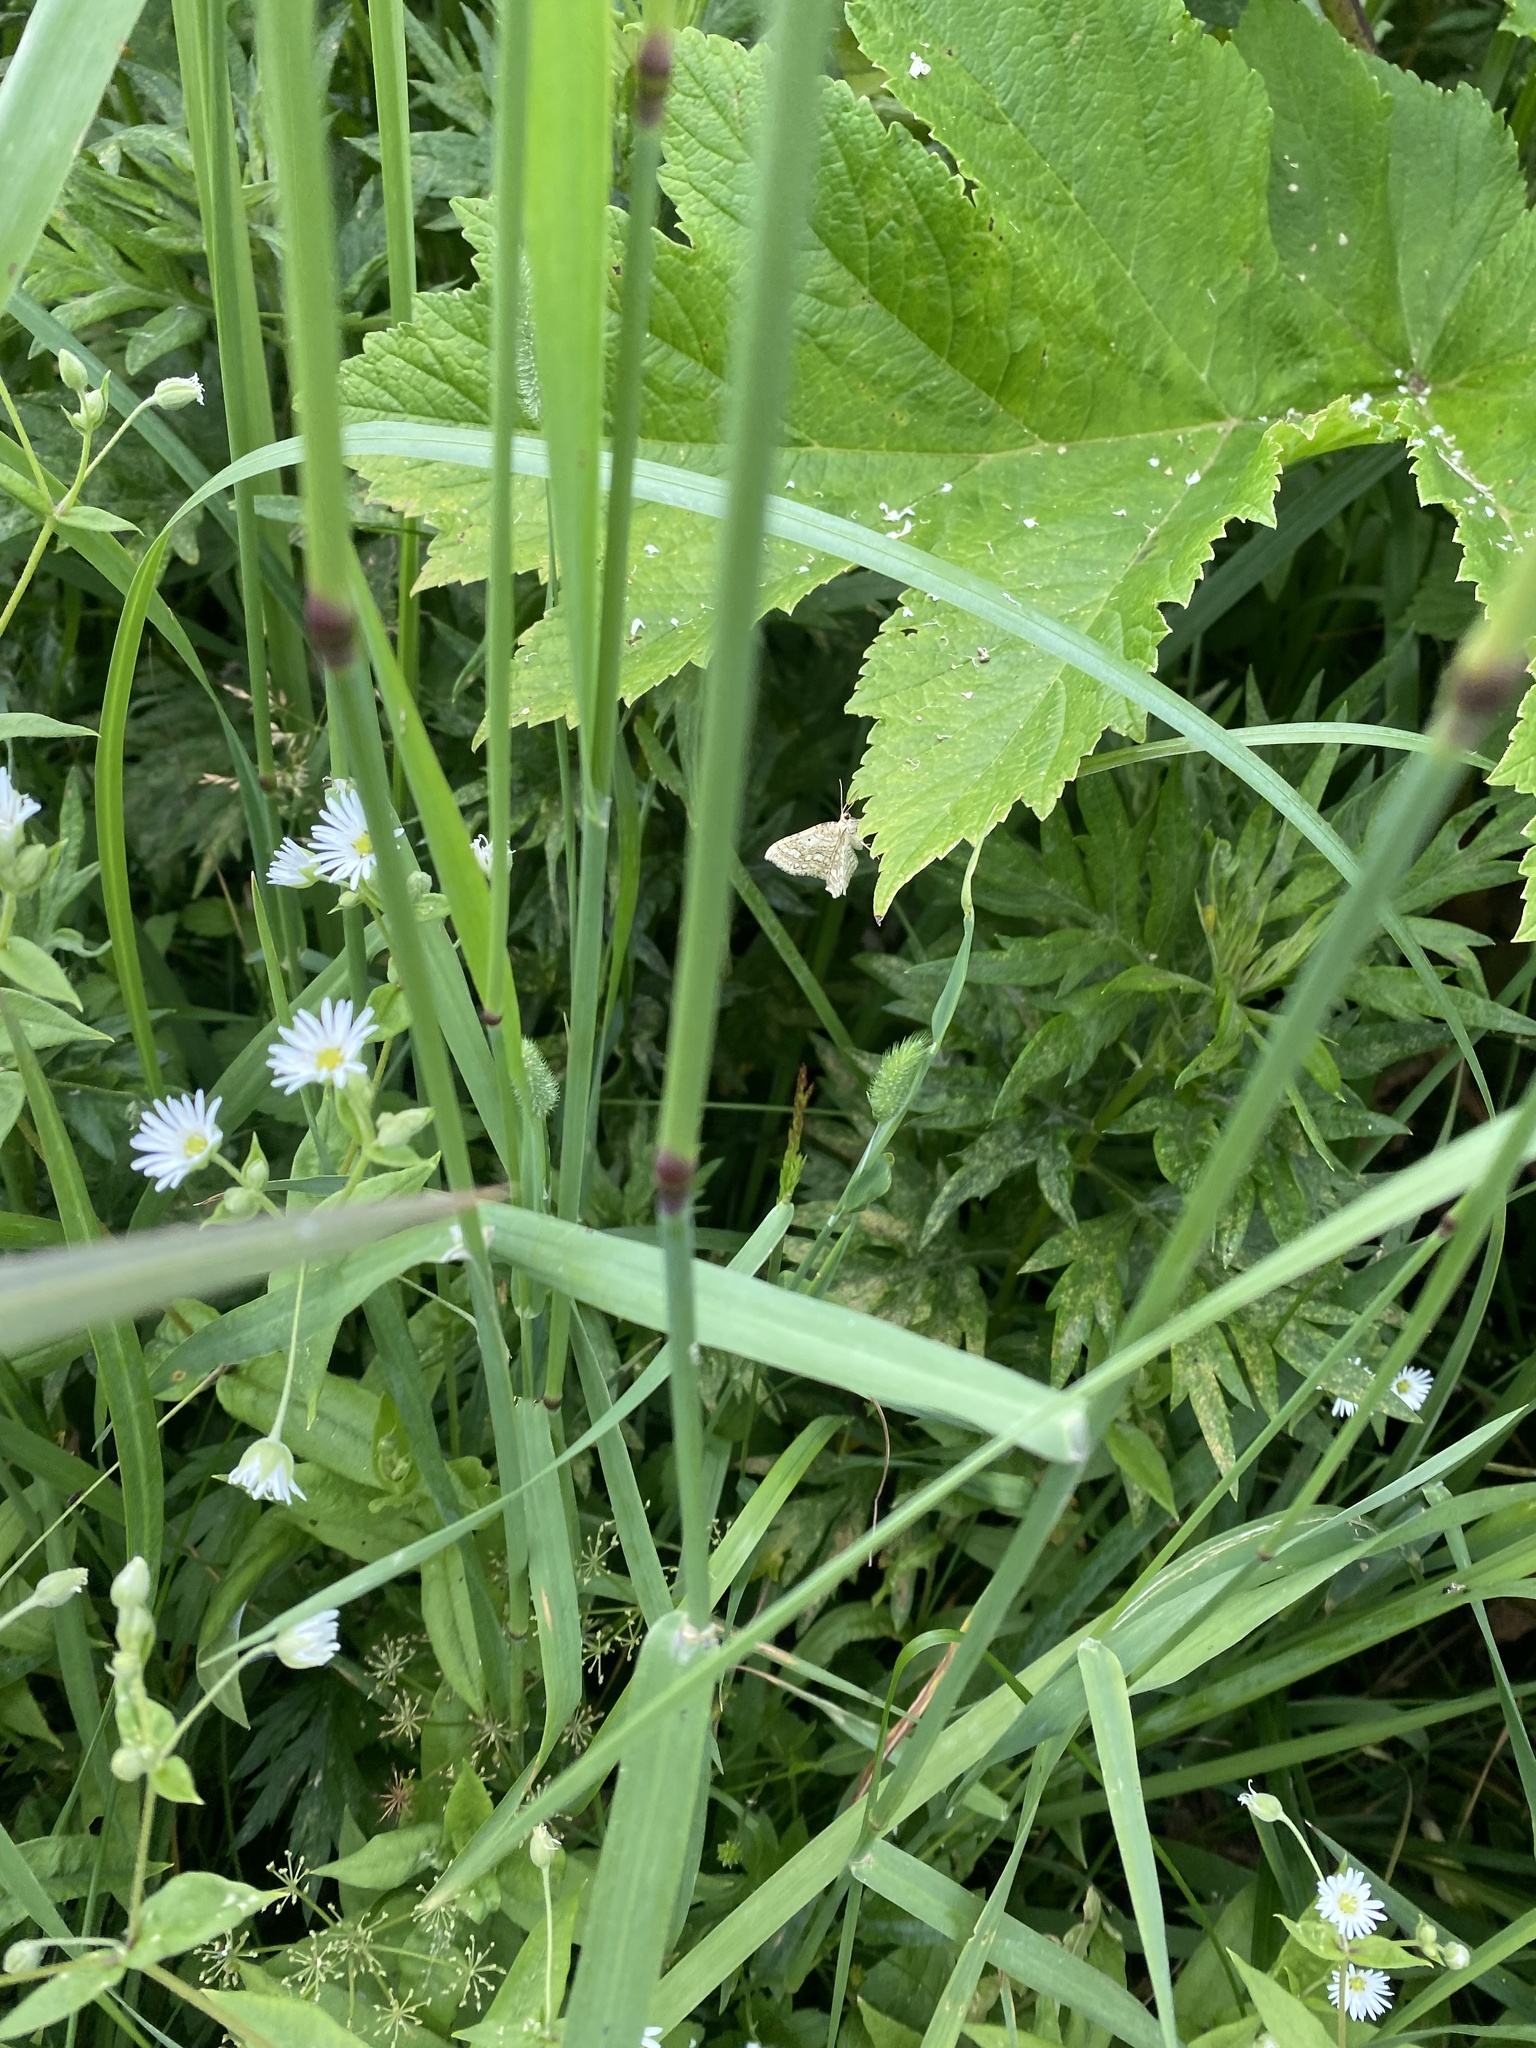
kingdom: Plantae
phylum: Tracheophyta
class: Magnoliopsida
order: Caryophyllales
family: Caryophyllaceae
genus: Stellaria
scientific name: Stellaria radians
